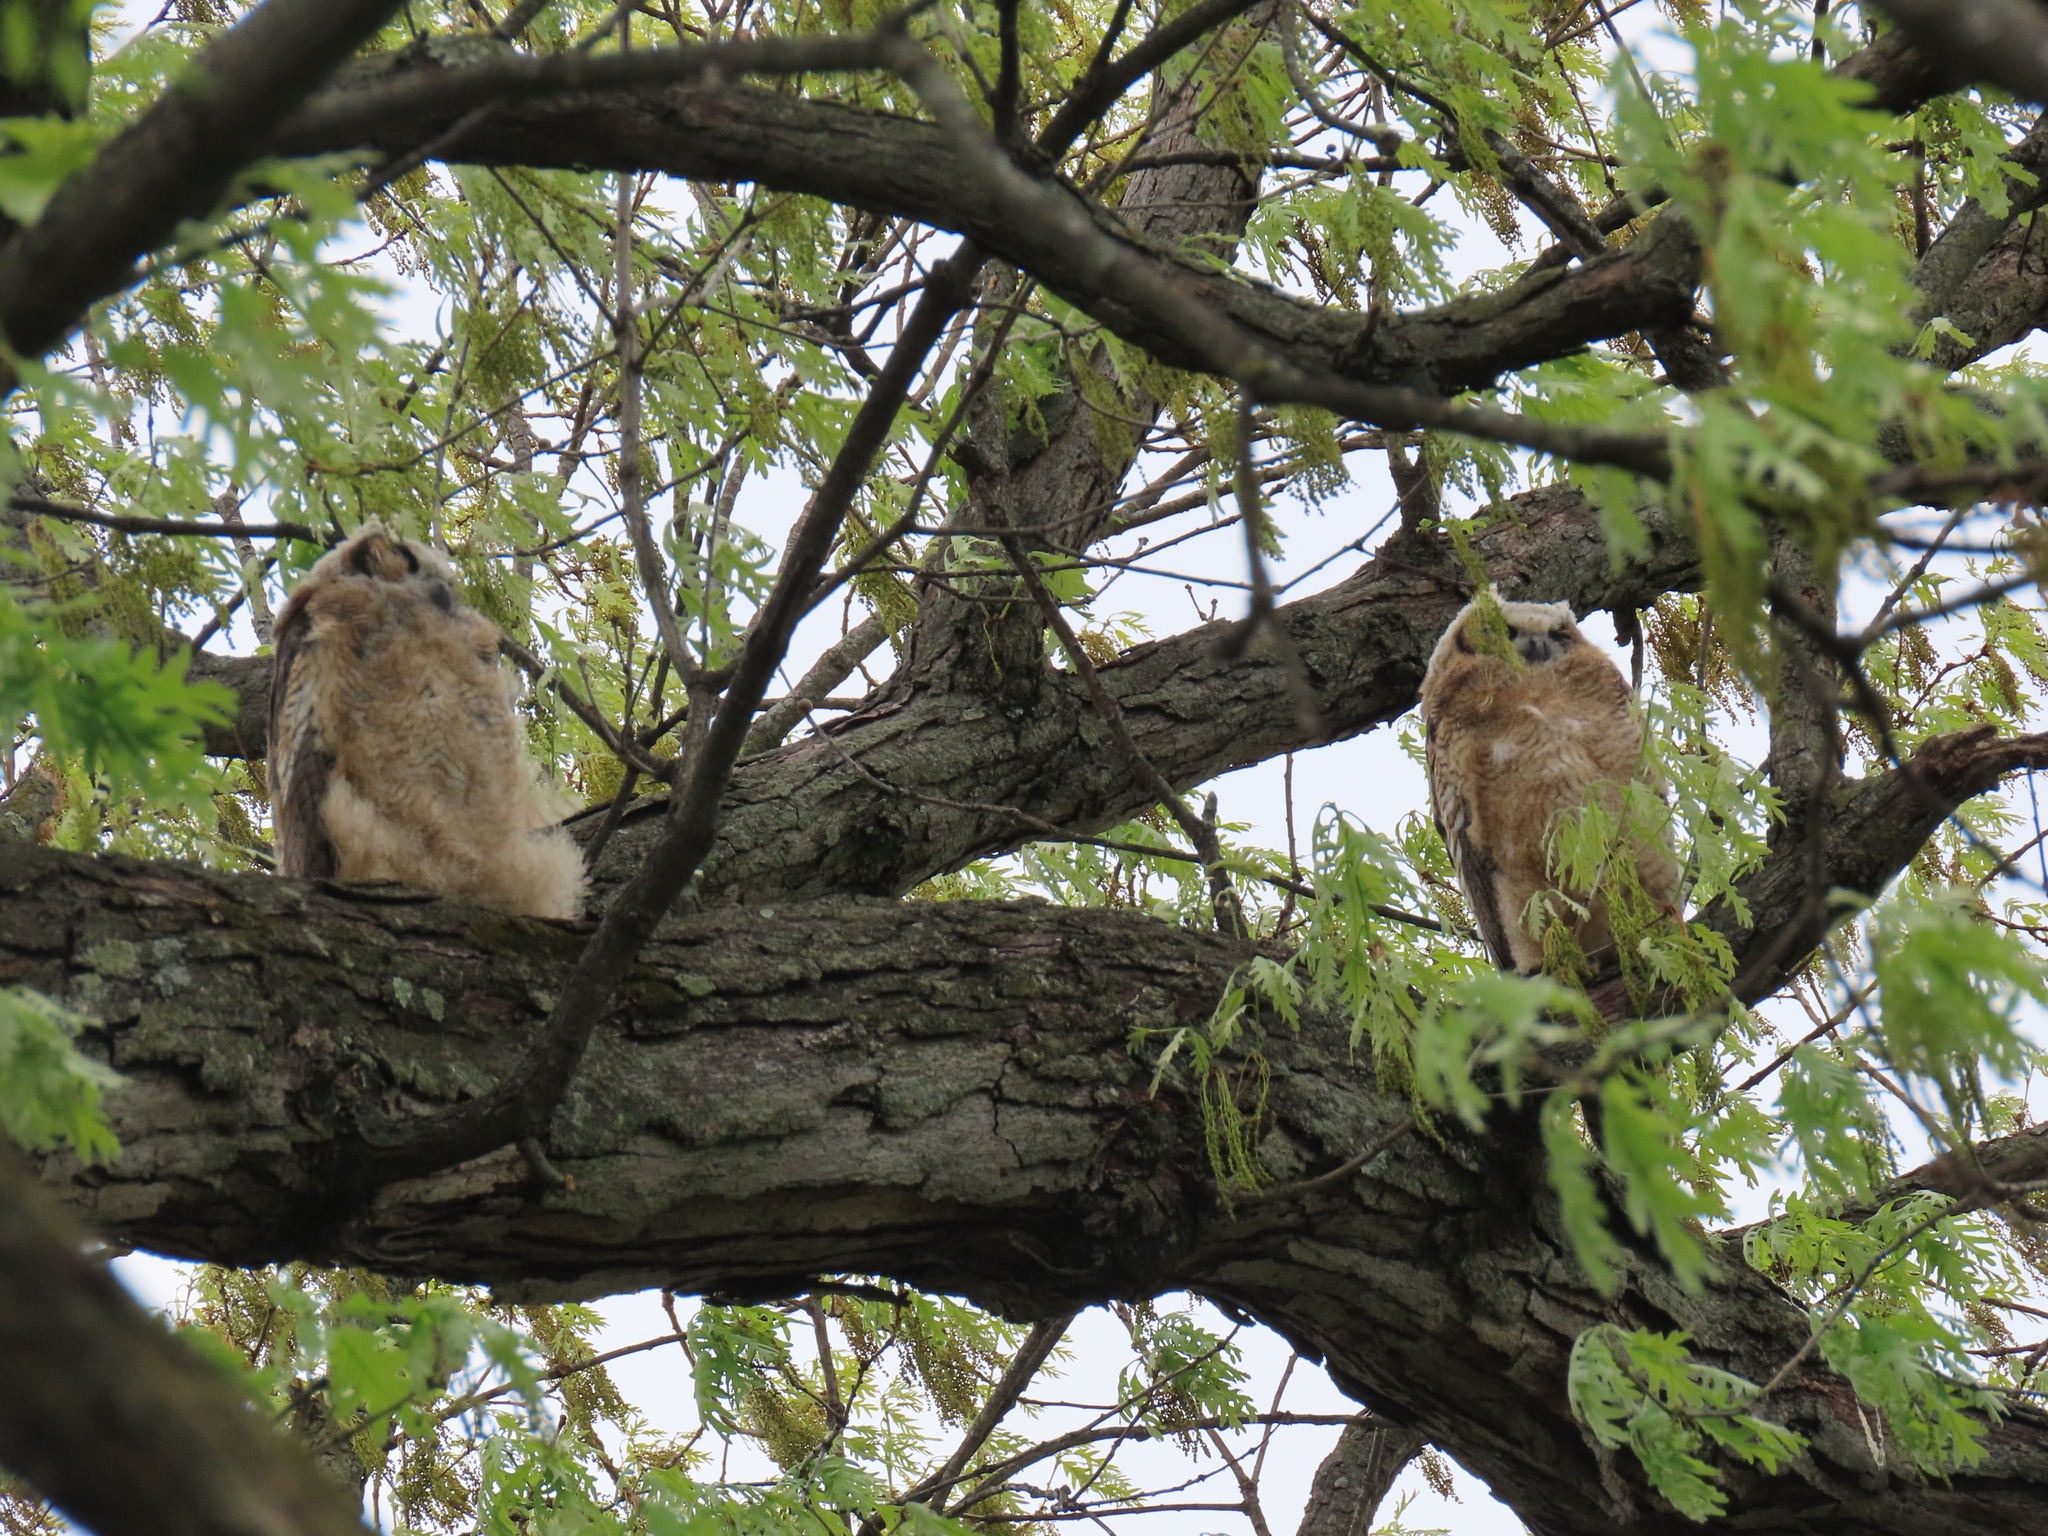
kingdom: Animalia
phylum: Chordata
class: Aves
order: Strigiformes
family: Strigidae
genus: Bubo
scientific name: Bubo virginianus
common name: Great horned owl
